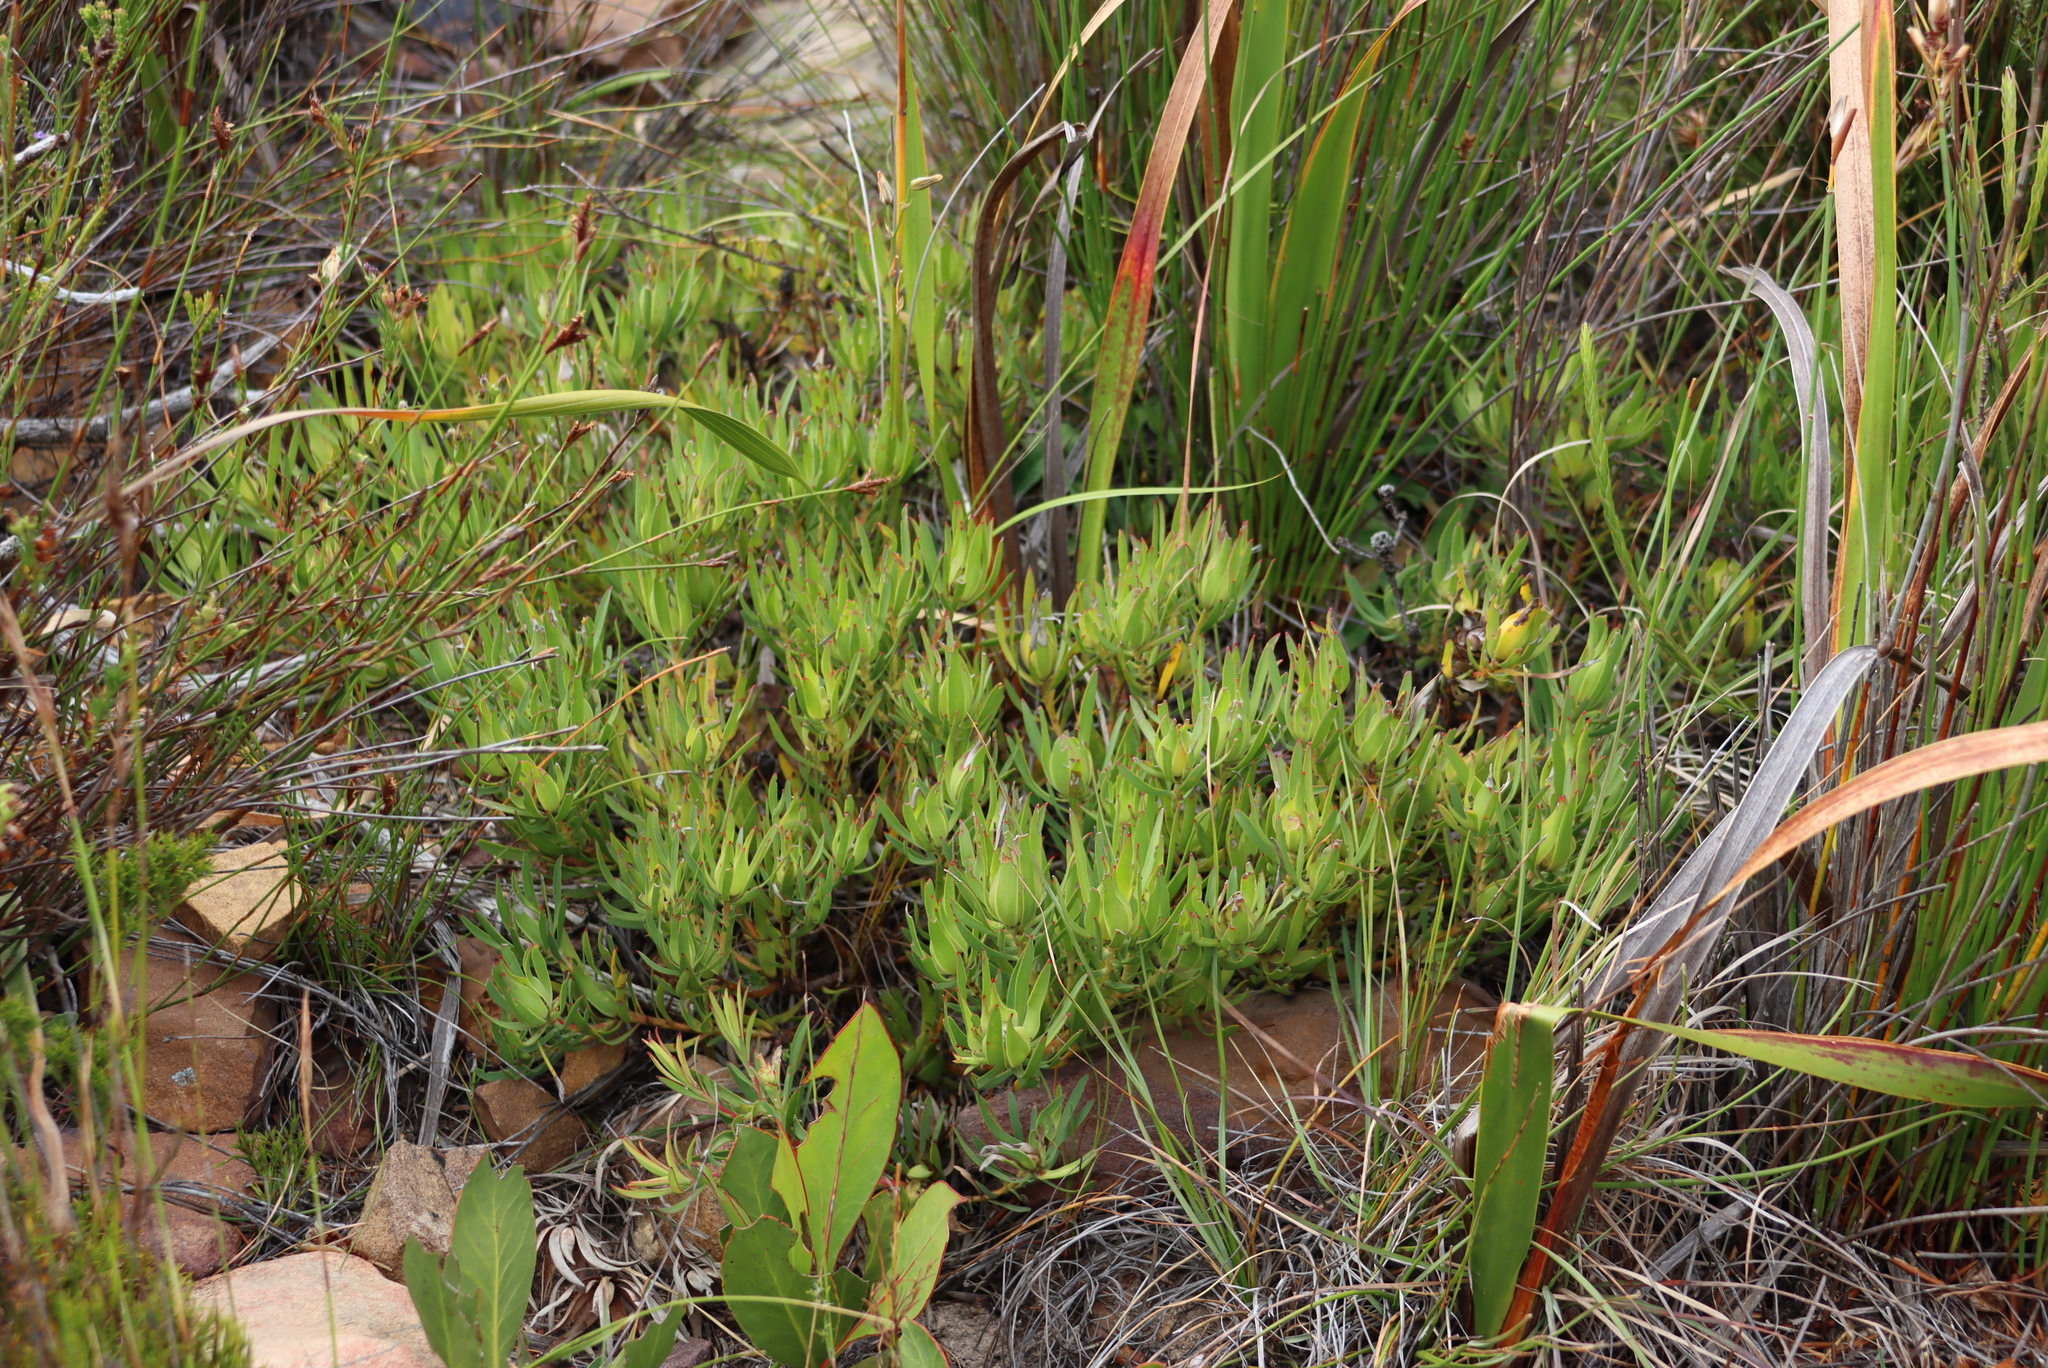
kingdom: Plantae
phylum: Tracheophyta
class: Magnoliopsida
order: Proteales
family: Proteaceae
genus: Leucadendron
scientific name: Leucadendron salignum
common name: Common sunshine conebush
